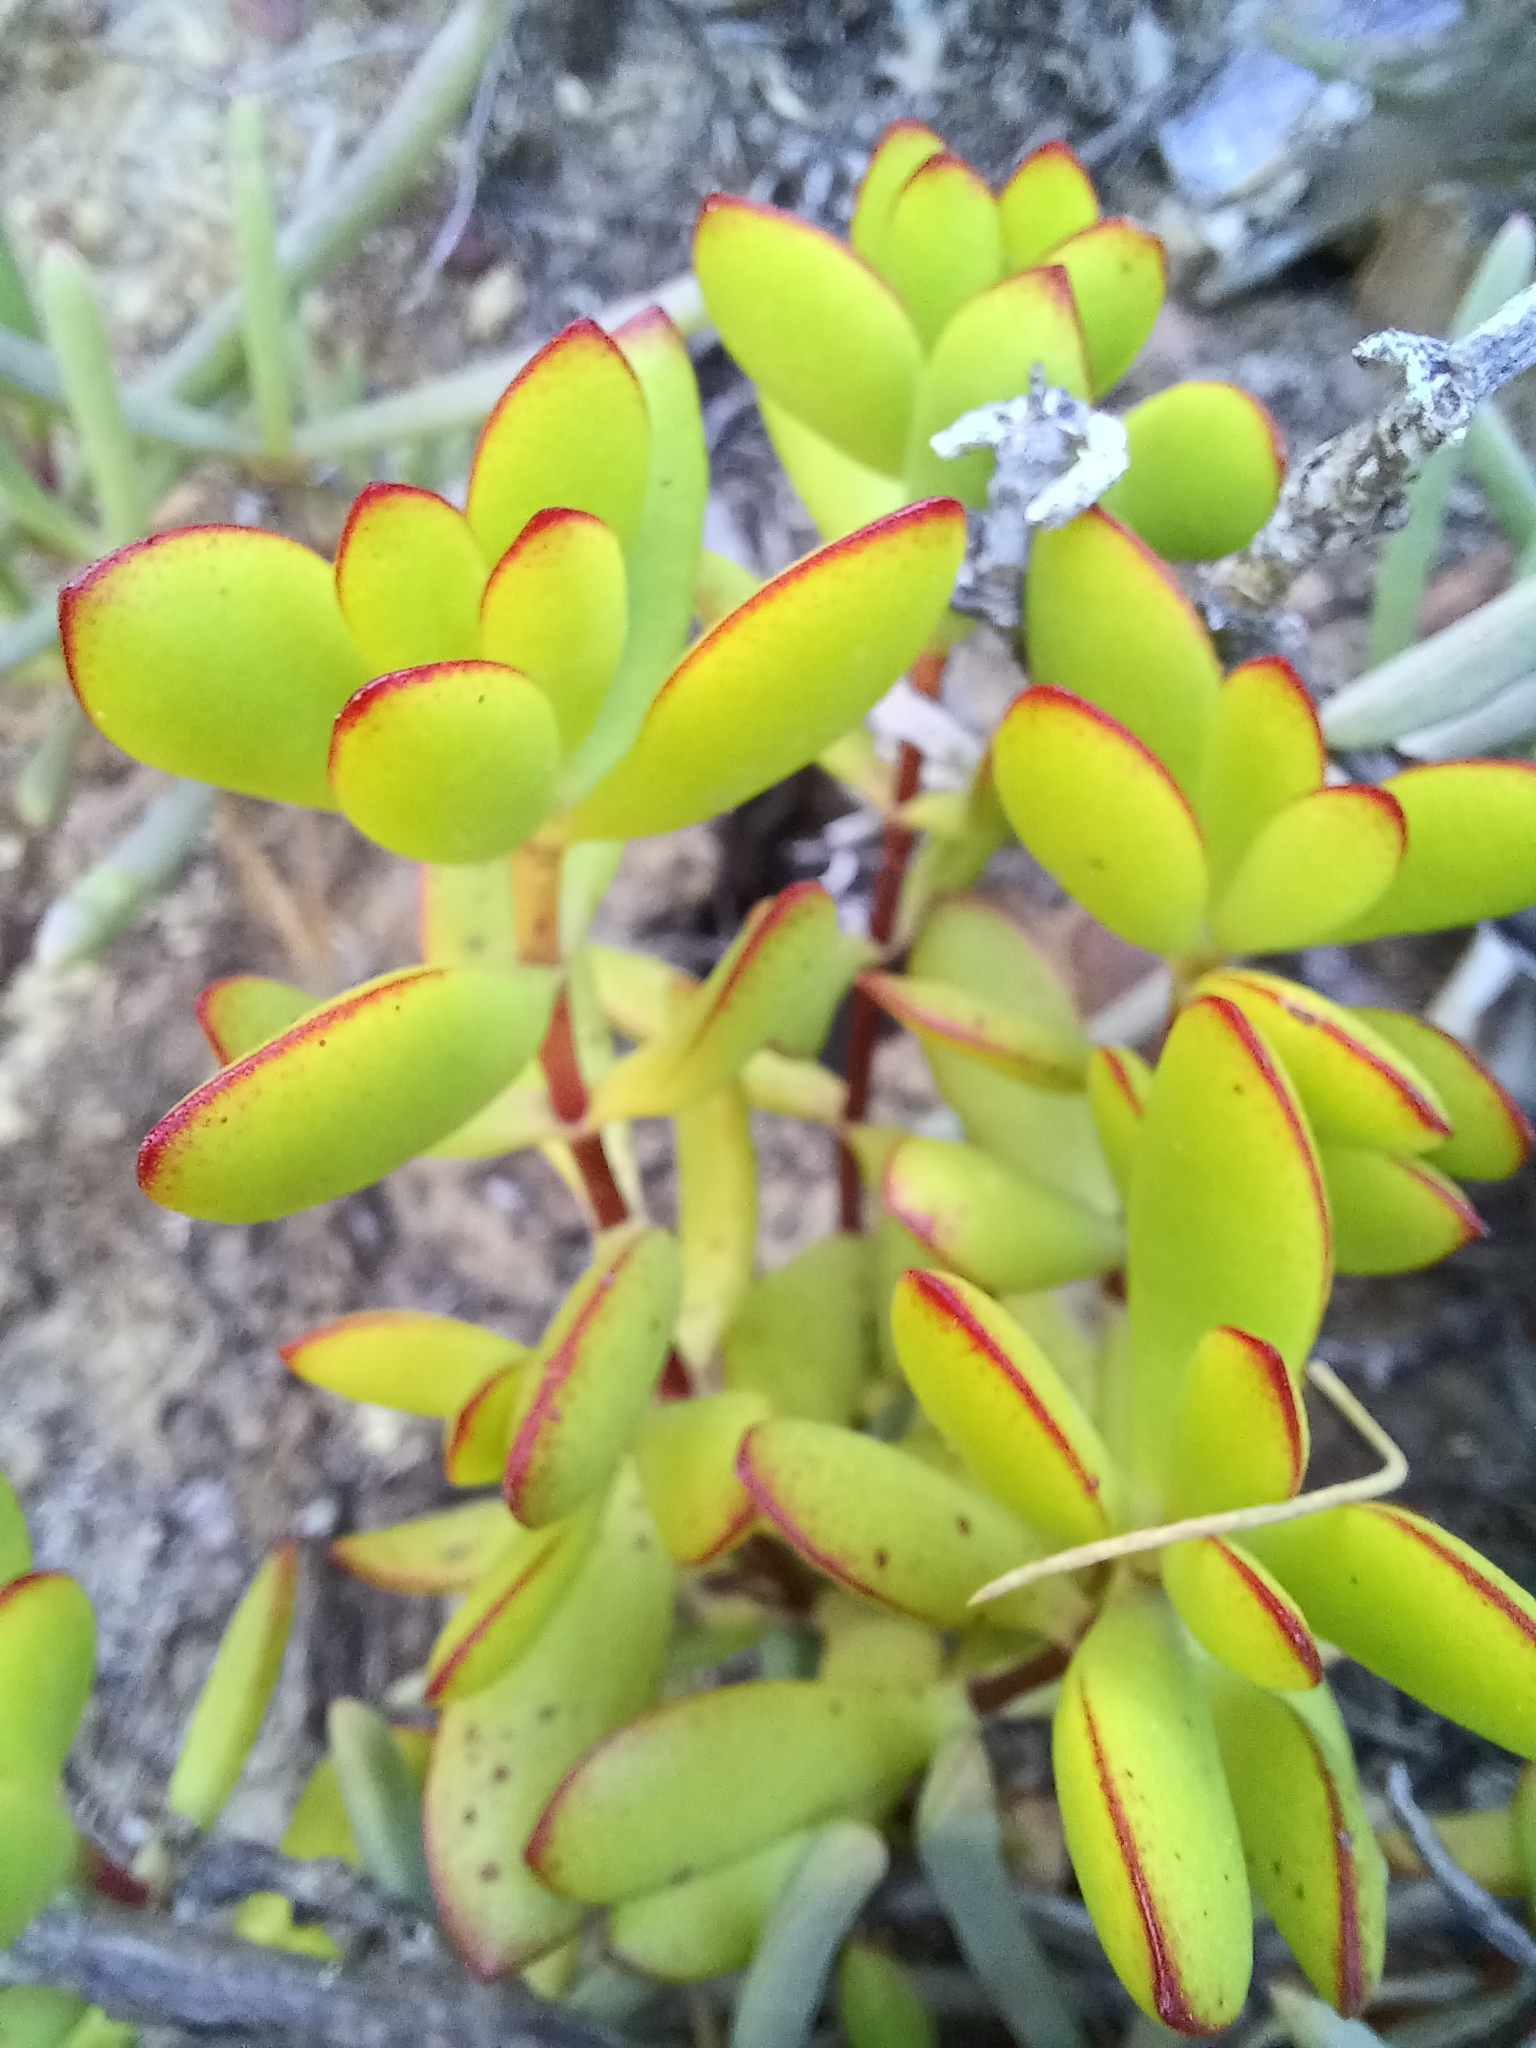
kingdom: Plantae
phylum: Tracheophyta
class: Magnoliopsida
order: Saxifragales
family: Crassulaceae
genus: Crassula
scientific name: Crassula atropurpurea
